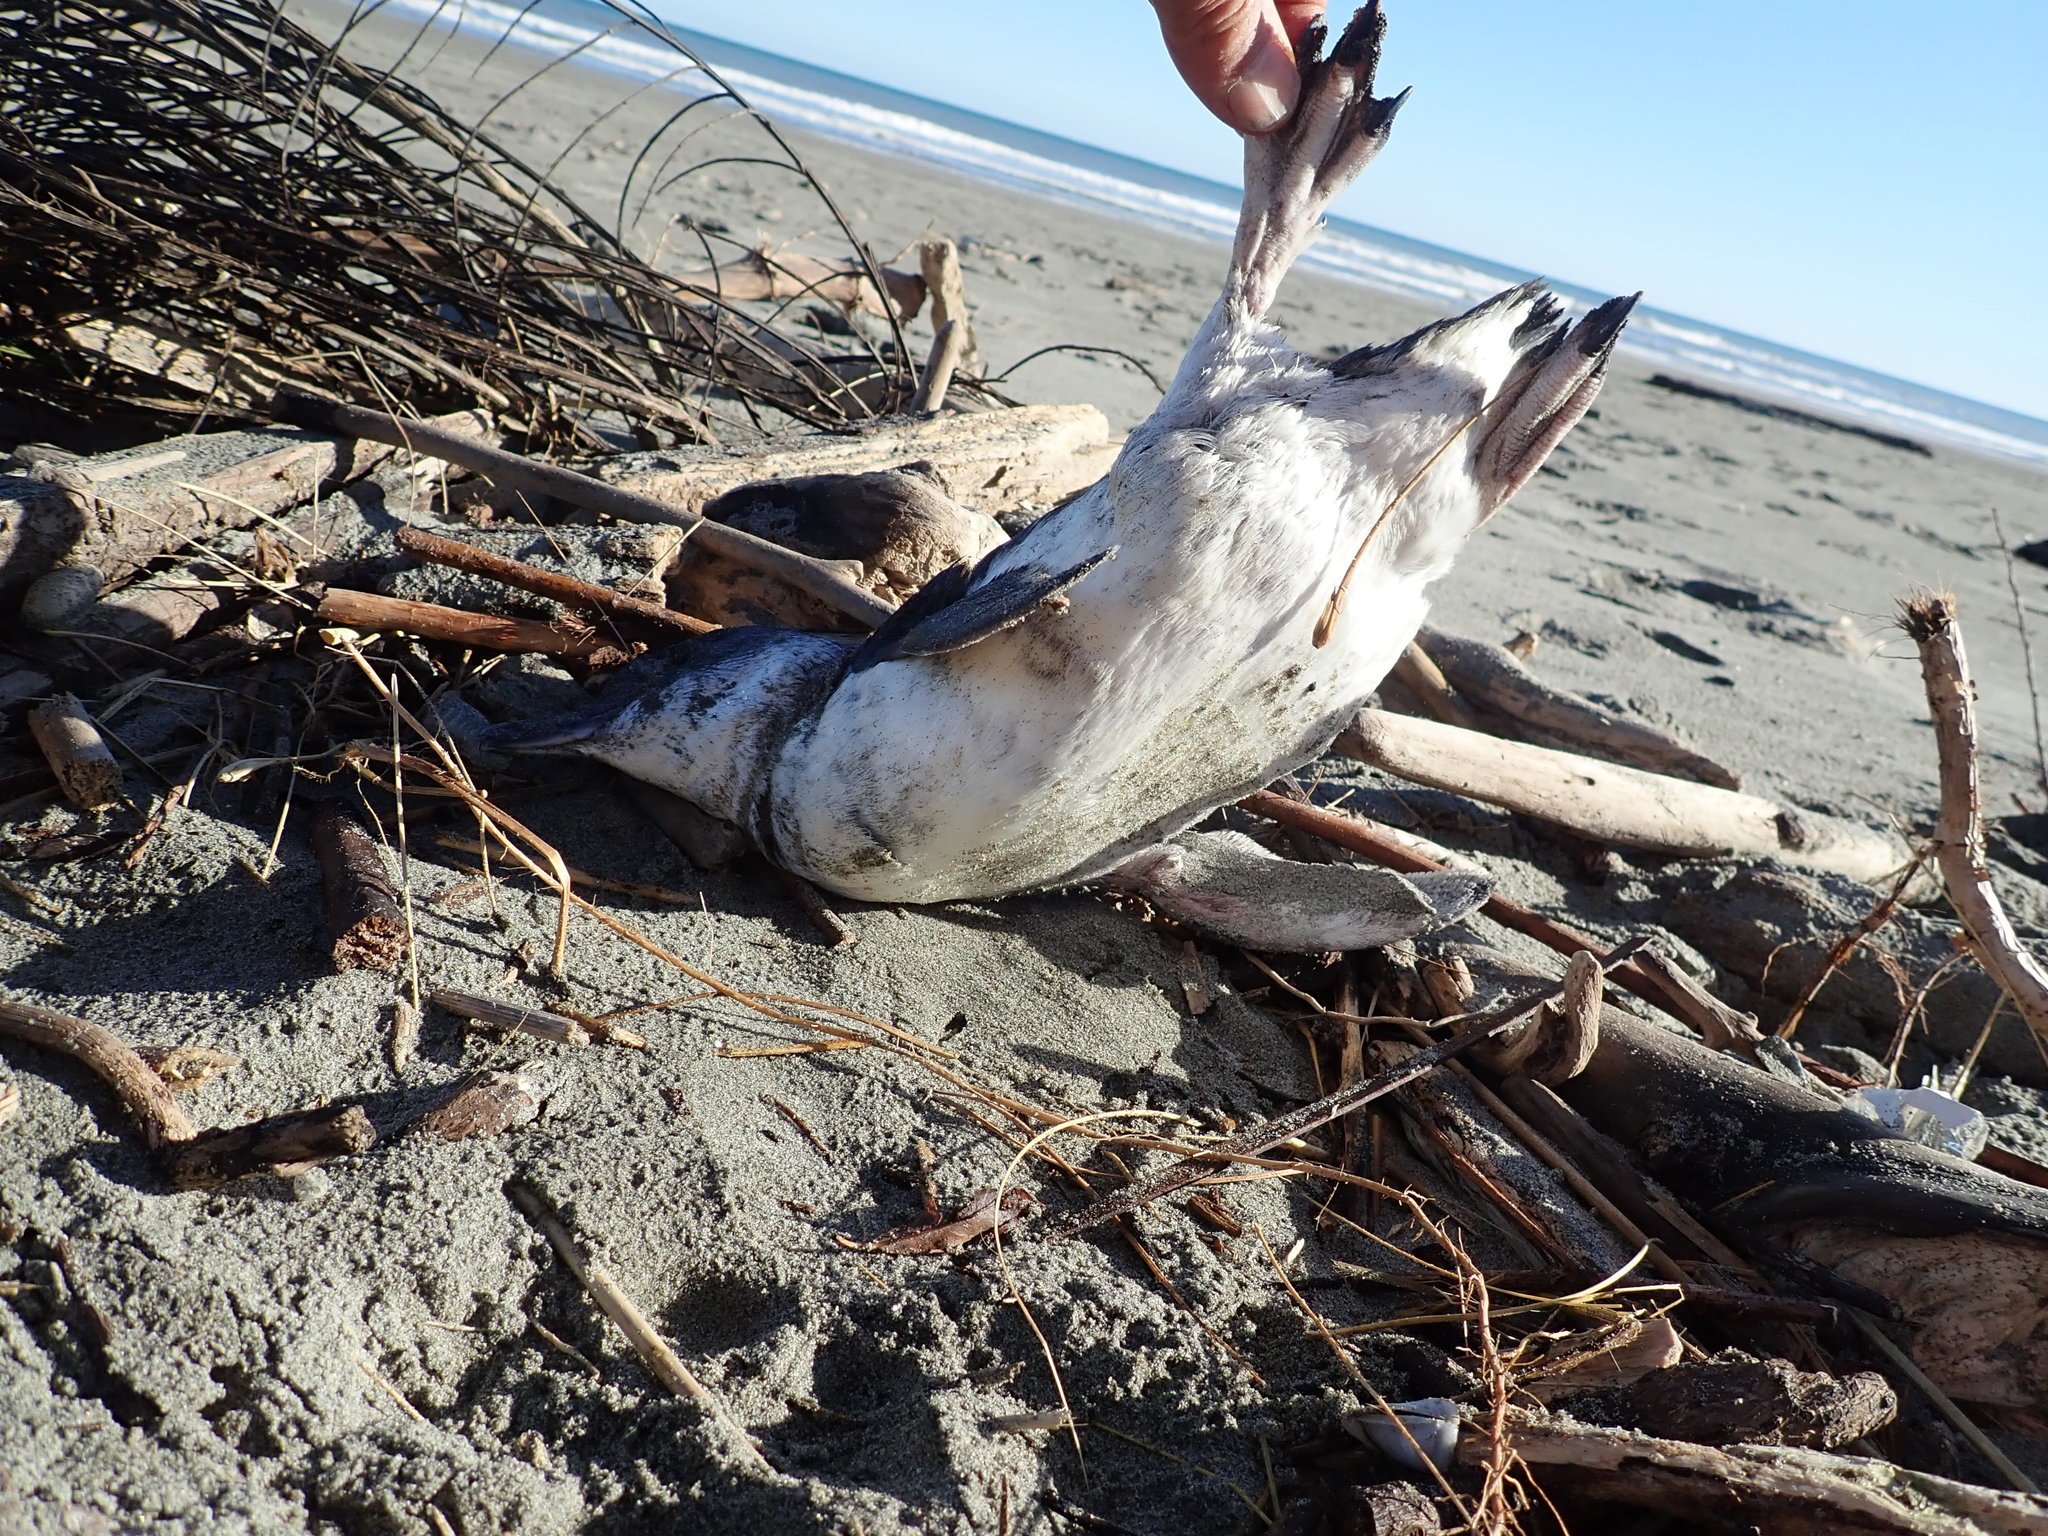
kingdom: Animalia
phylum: Chordata
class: Aves
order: Sphenisciformes
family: Spheniscidae
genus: Eudyptula
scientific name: Eudyptula minor
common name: Little penguin
